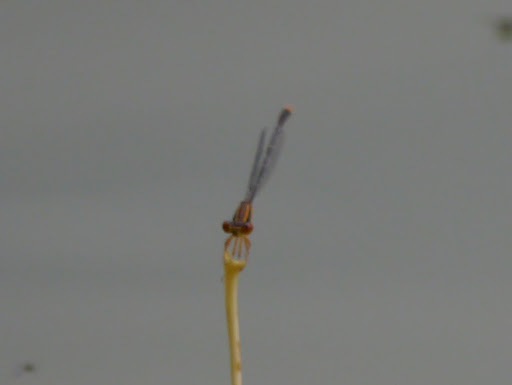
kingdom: Animalia
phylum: Arthropoda
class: Insecta
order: Odonata
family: Coenagrionidae
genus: Enallagma
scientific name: Enallagma signatum
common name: Orange bluet
